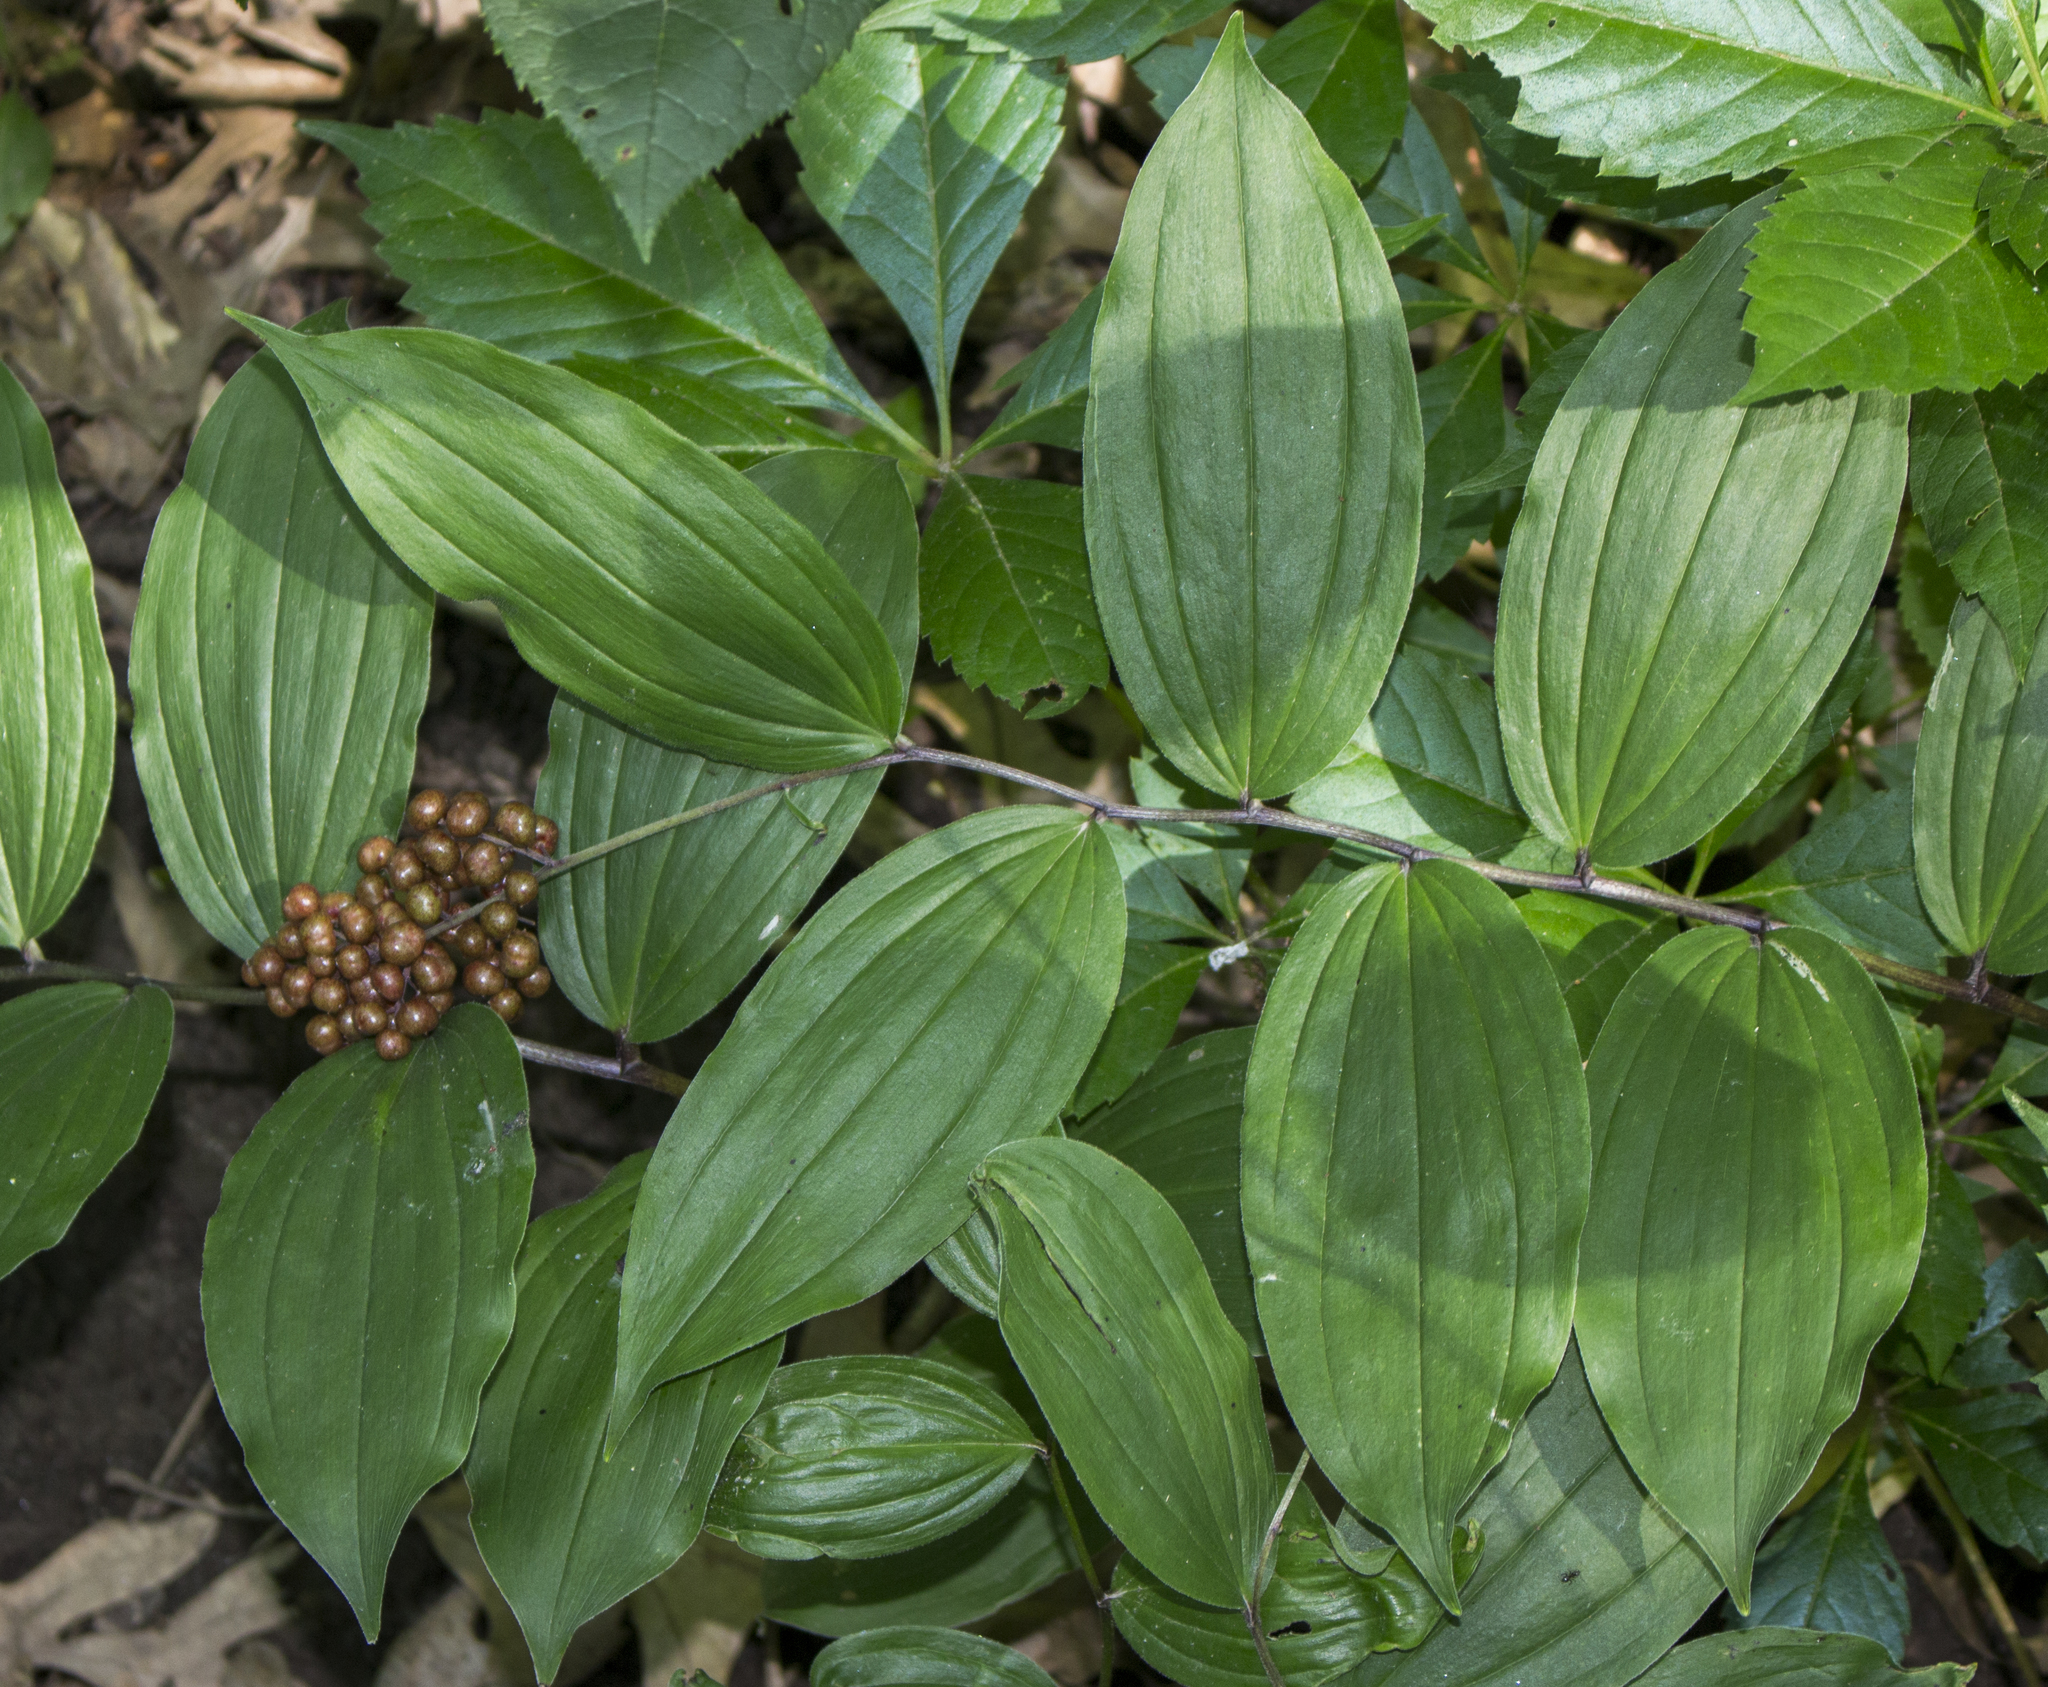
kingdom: Plantae
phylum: Tracheophyta
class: Liliopsida
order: Asparagales
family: Asparagaceae
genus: Maianthemum
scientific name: Maianthemum racemosum
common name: False spikenard
